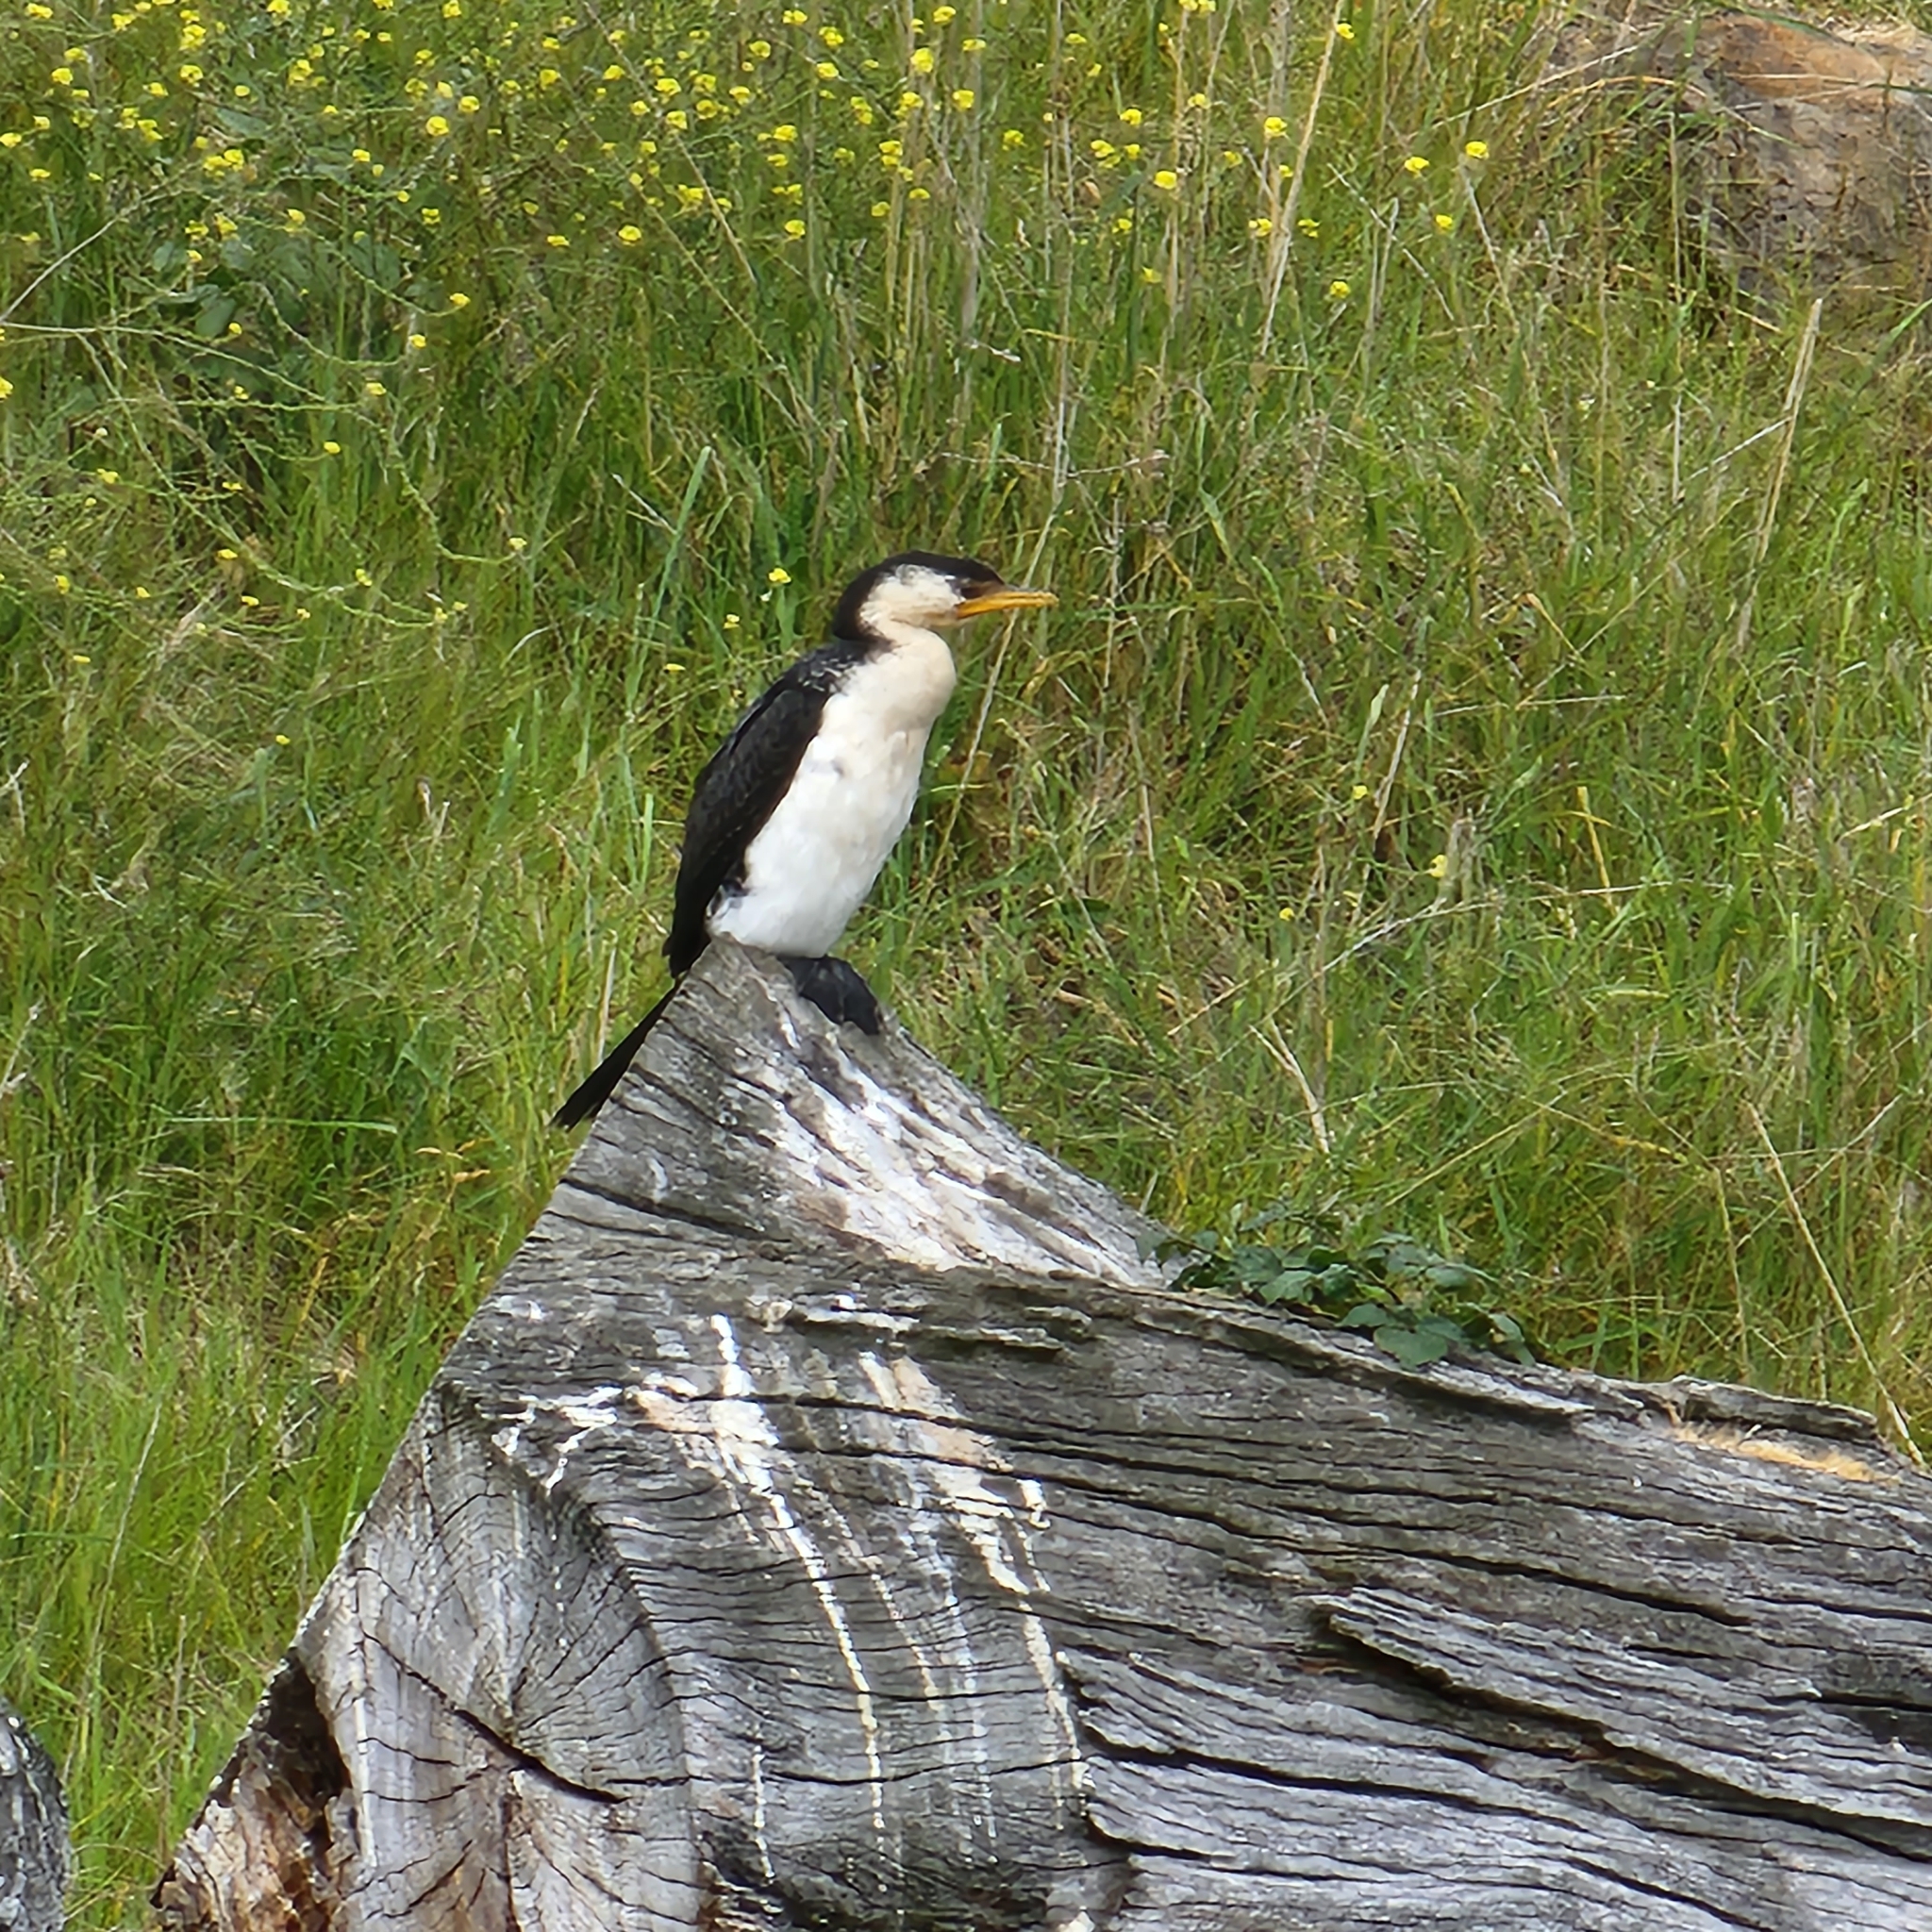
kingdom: Animalia
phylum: Chordata
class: Aves
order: Suliformes
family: Phalacrocoracidae
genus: Microcarbo
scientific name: Microcarbo melanoleucos
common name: Little pied cormorant
